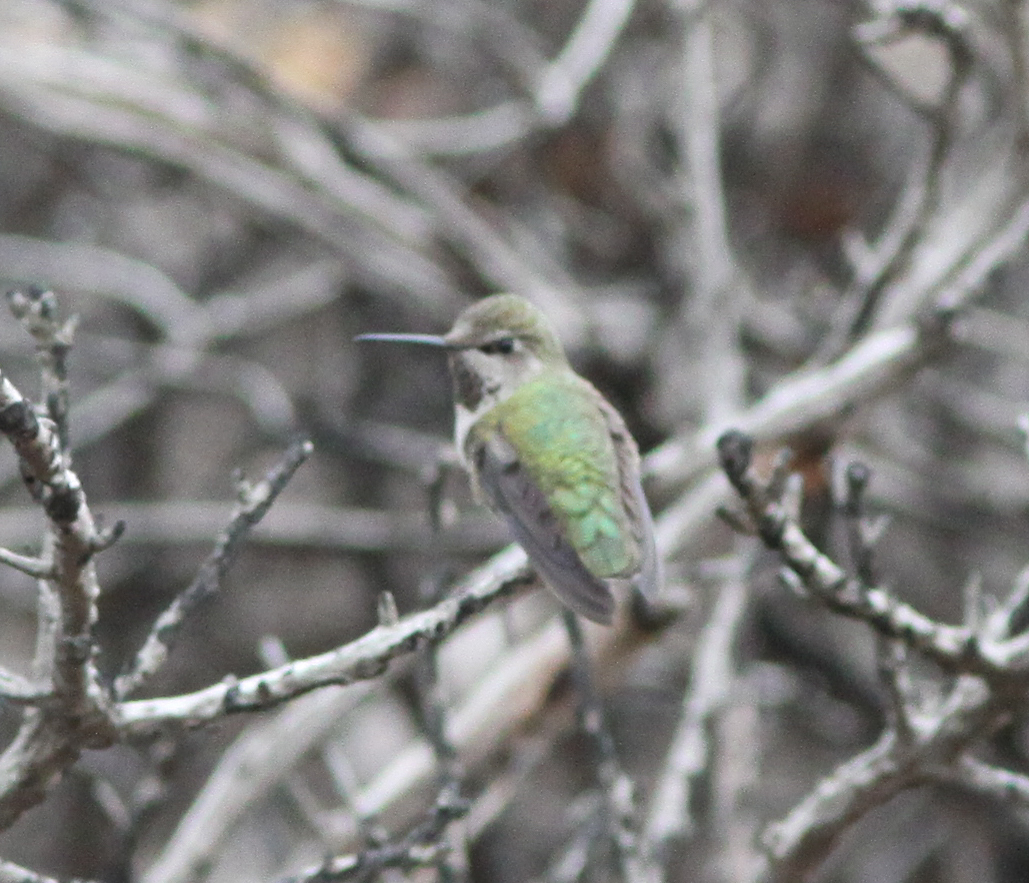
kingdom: Animalia
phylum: Chordata
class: Aves
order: Apodiformes
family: Trochilidae
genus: Calypte
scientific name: Calypte anna
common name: Anna's hummingbird
